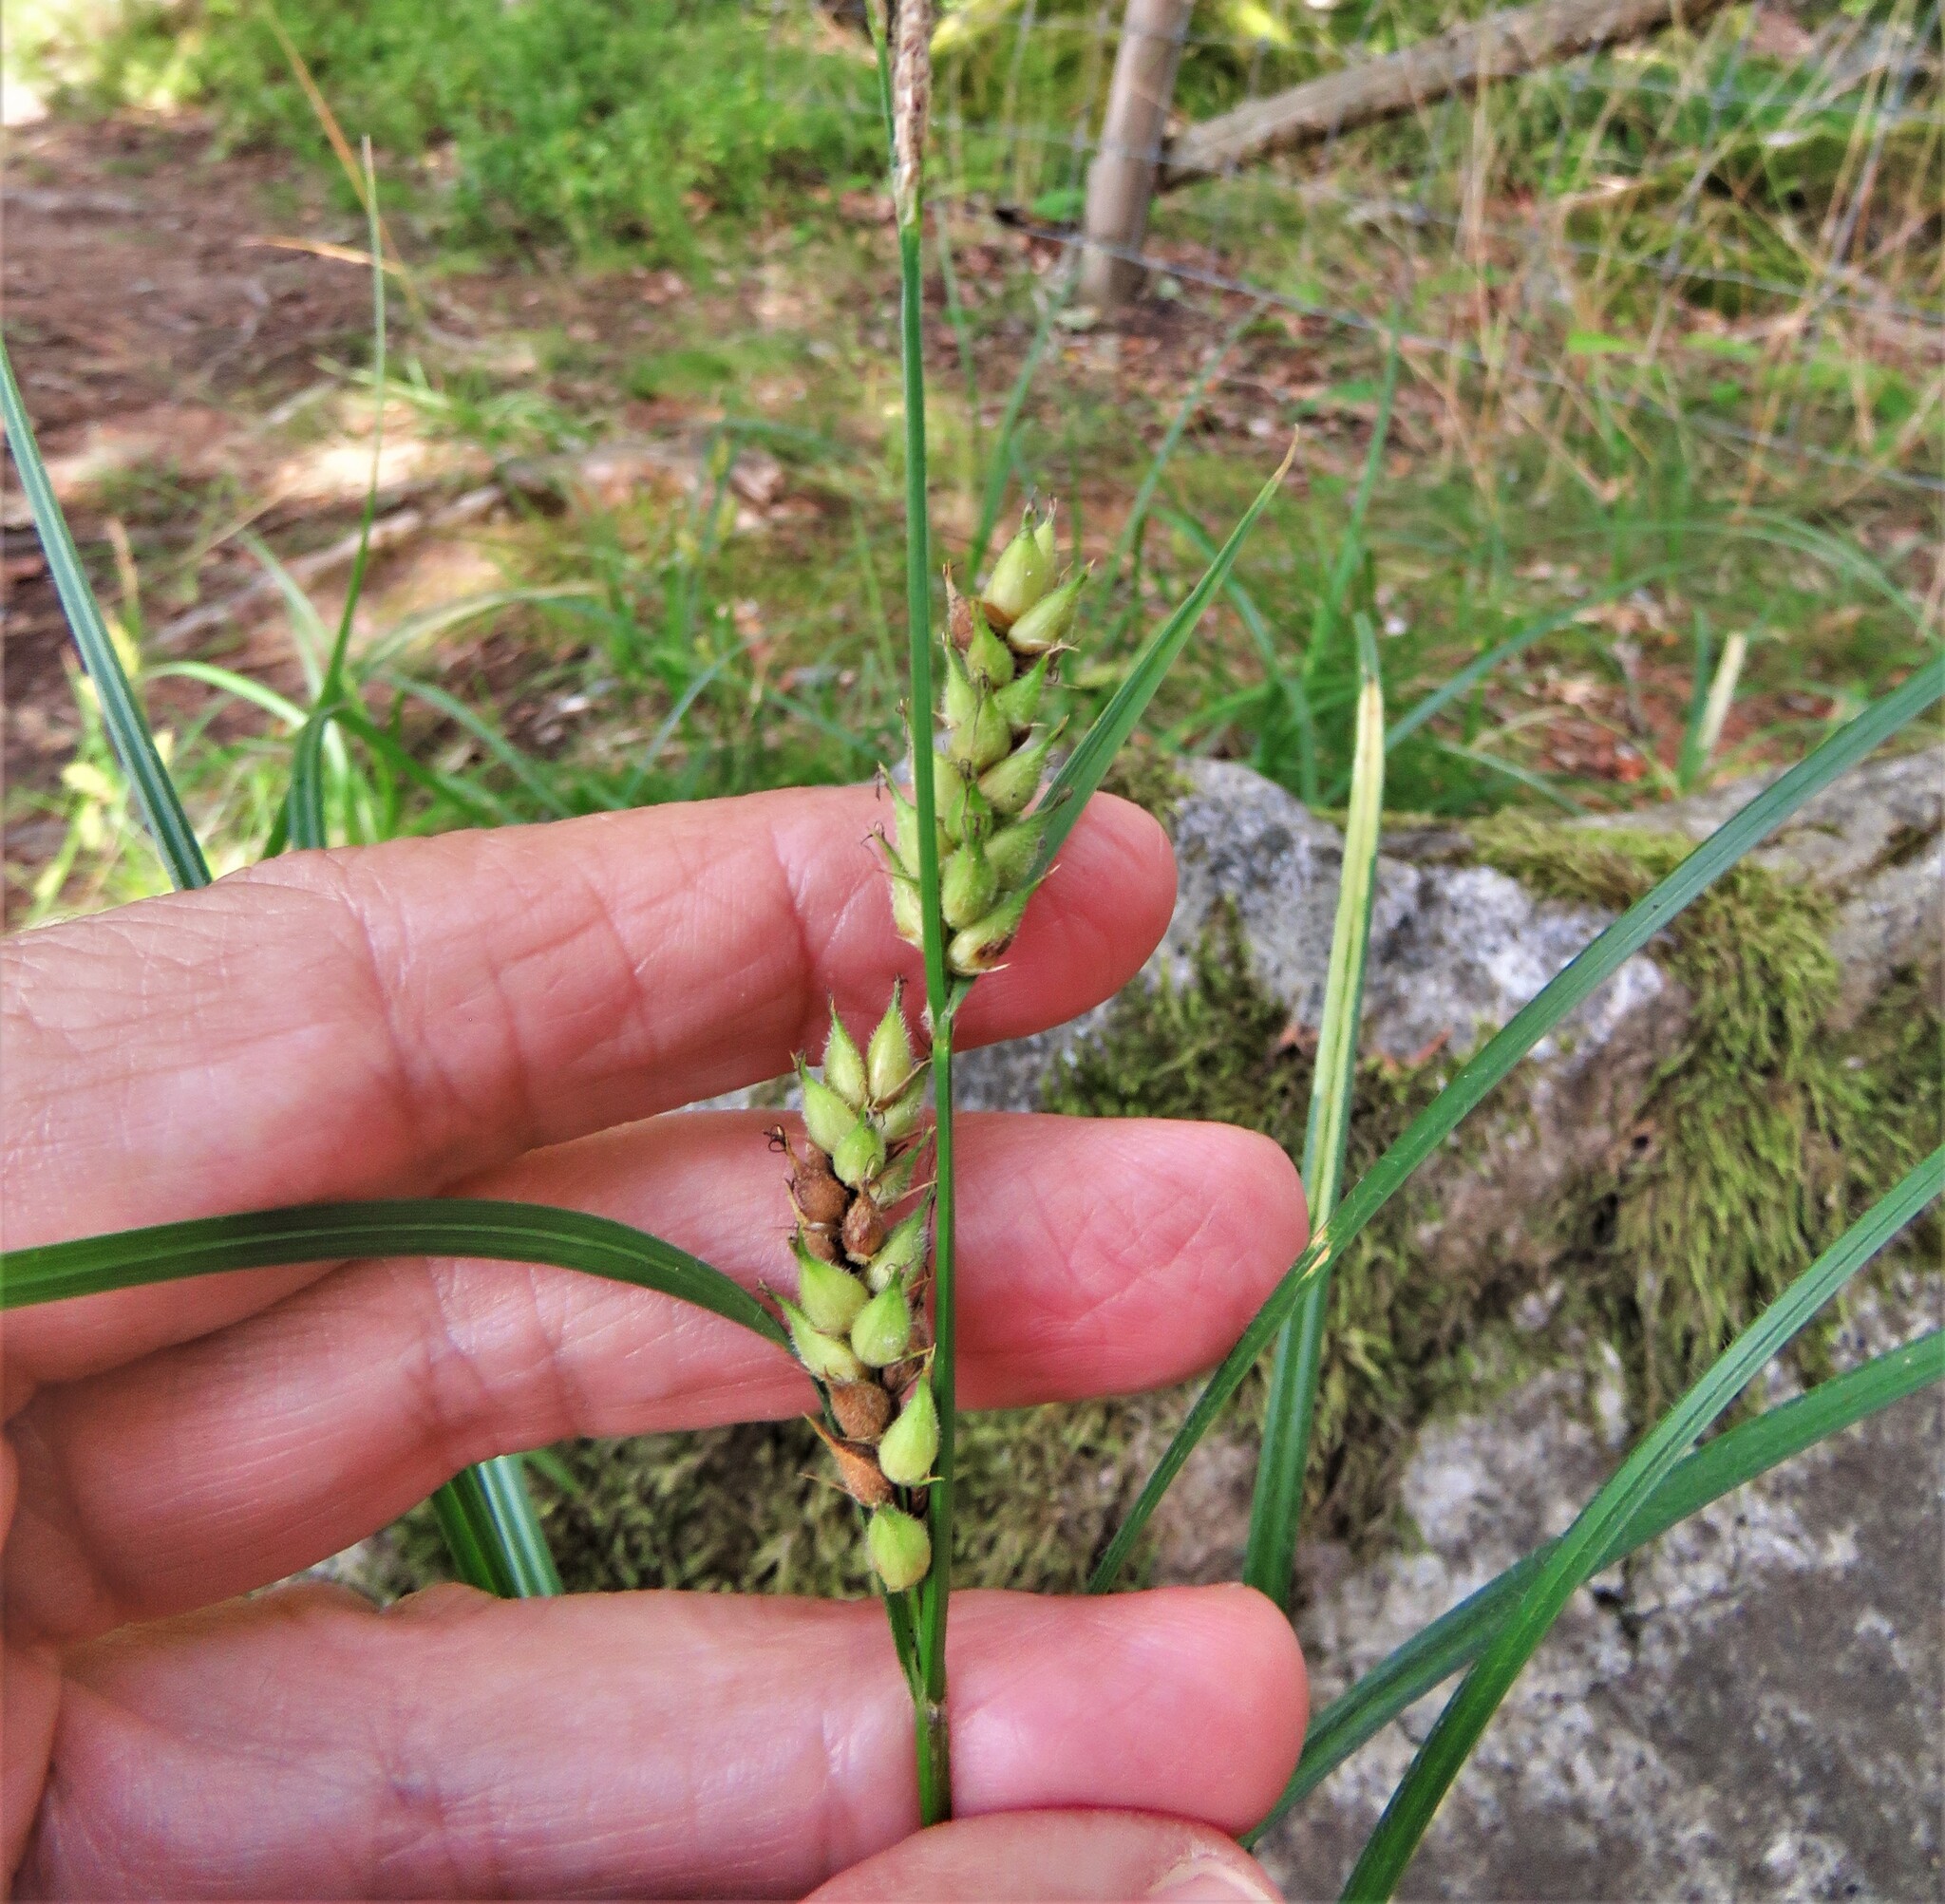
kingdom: Plantae
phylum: Tracheophyta
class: Liliopsida
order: Poales
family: Cyperaceae
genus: Carex
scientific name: Carex hirta
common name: Hairy sedge
